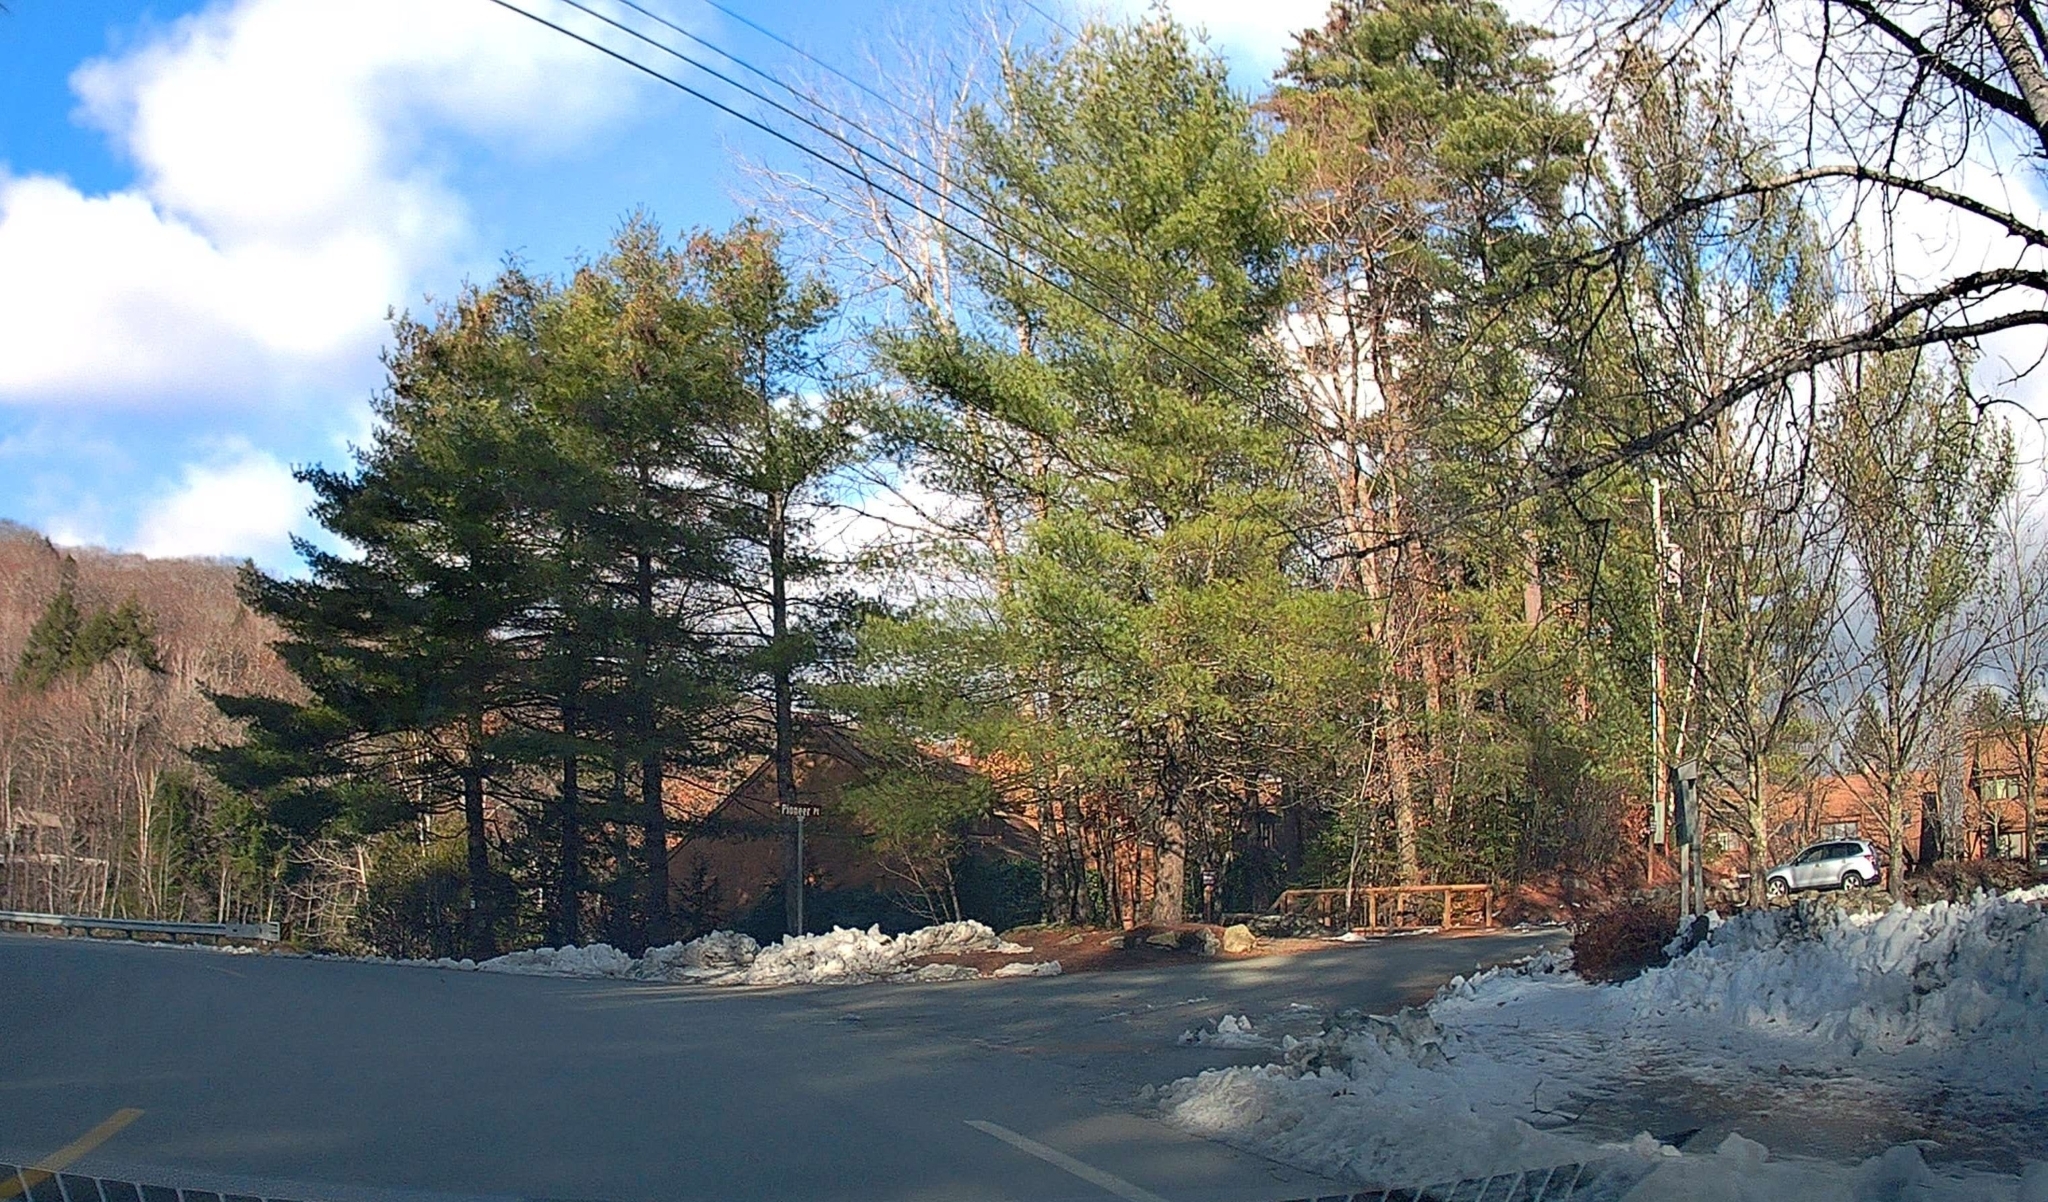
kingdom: Plantae
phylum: Tracheophyta
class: Pinopsida
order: Pinales
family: Pinaceae
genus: Pinus
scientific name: Pinus strobus
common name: Weymouth pine
